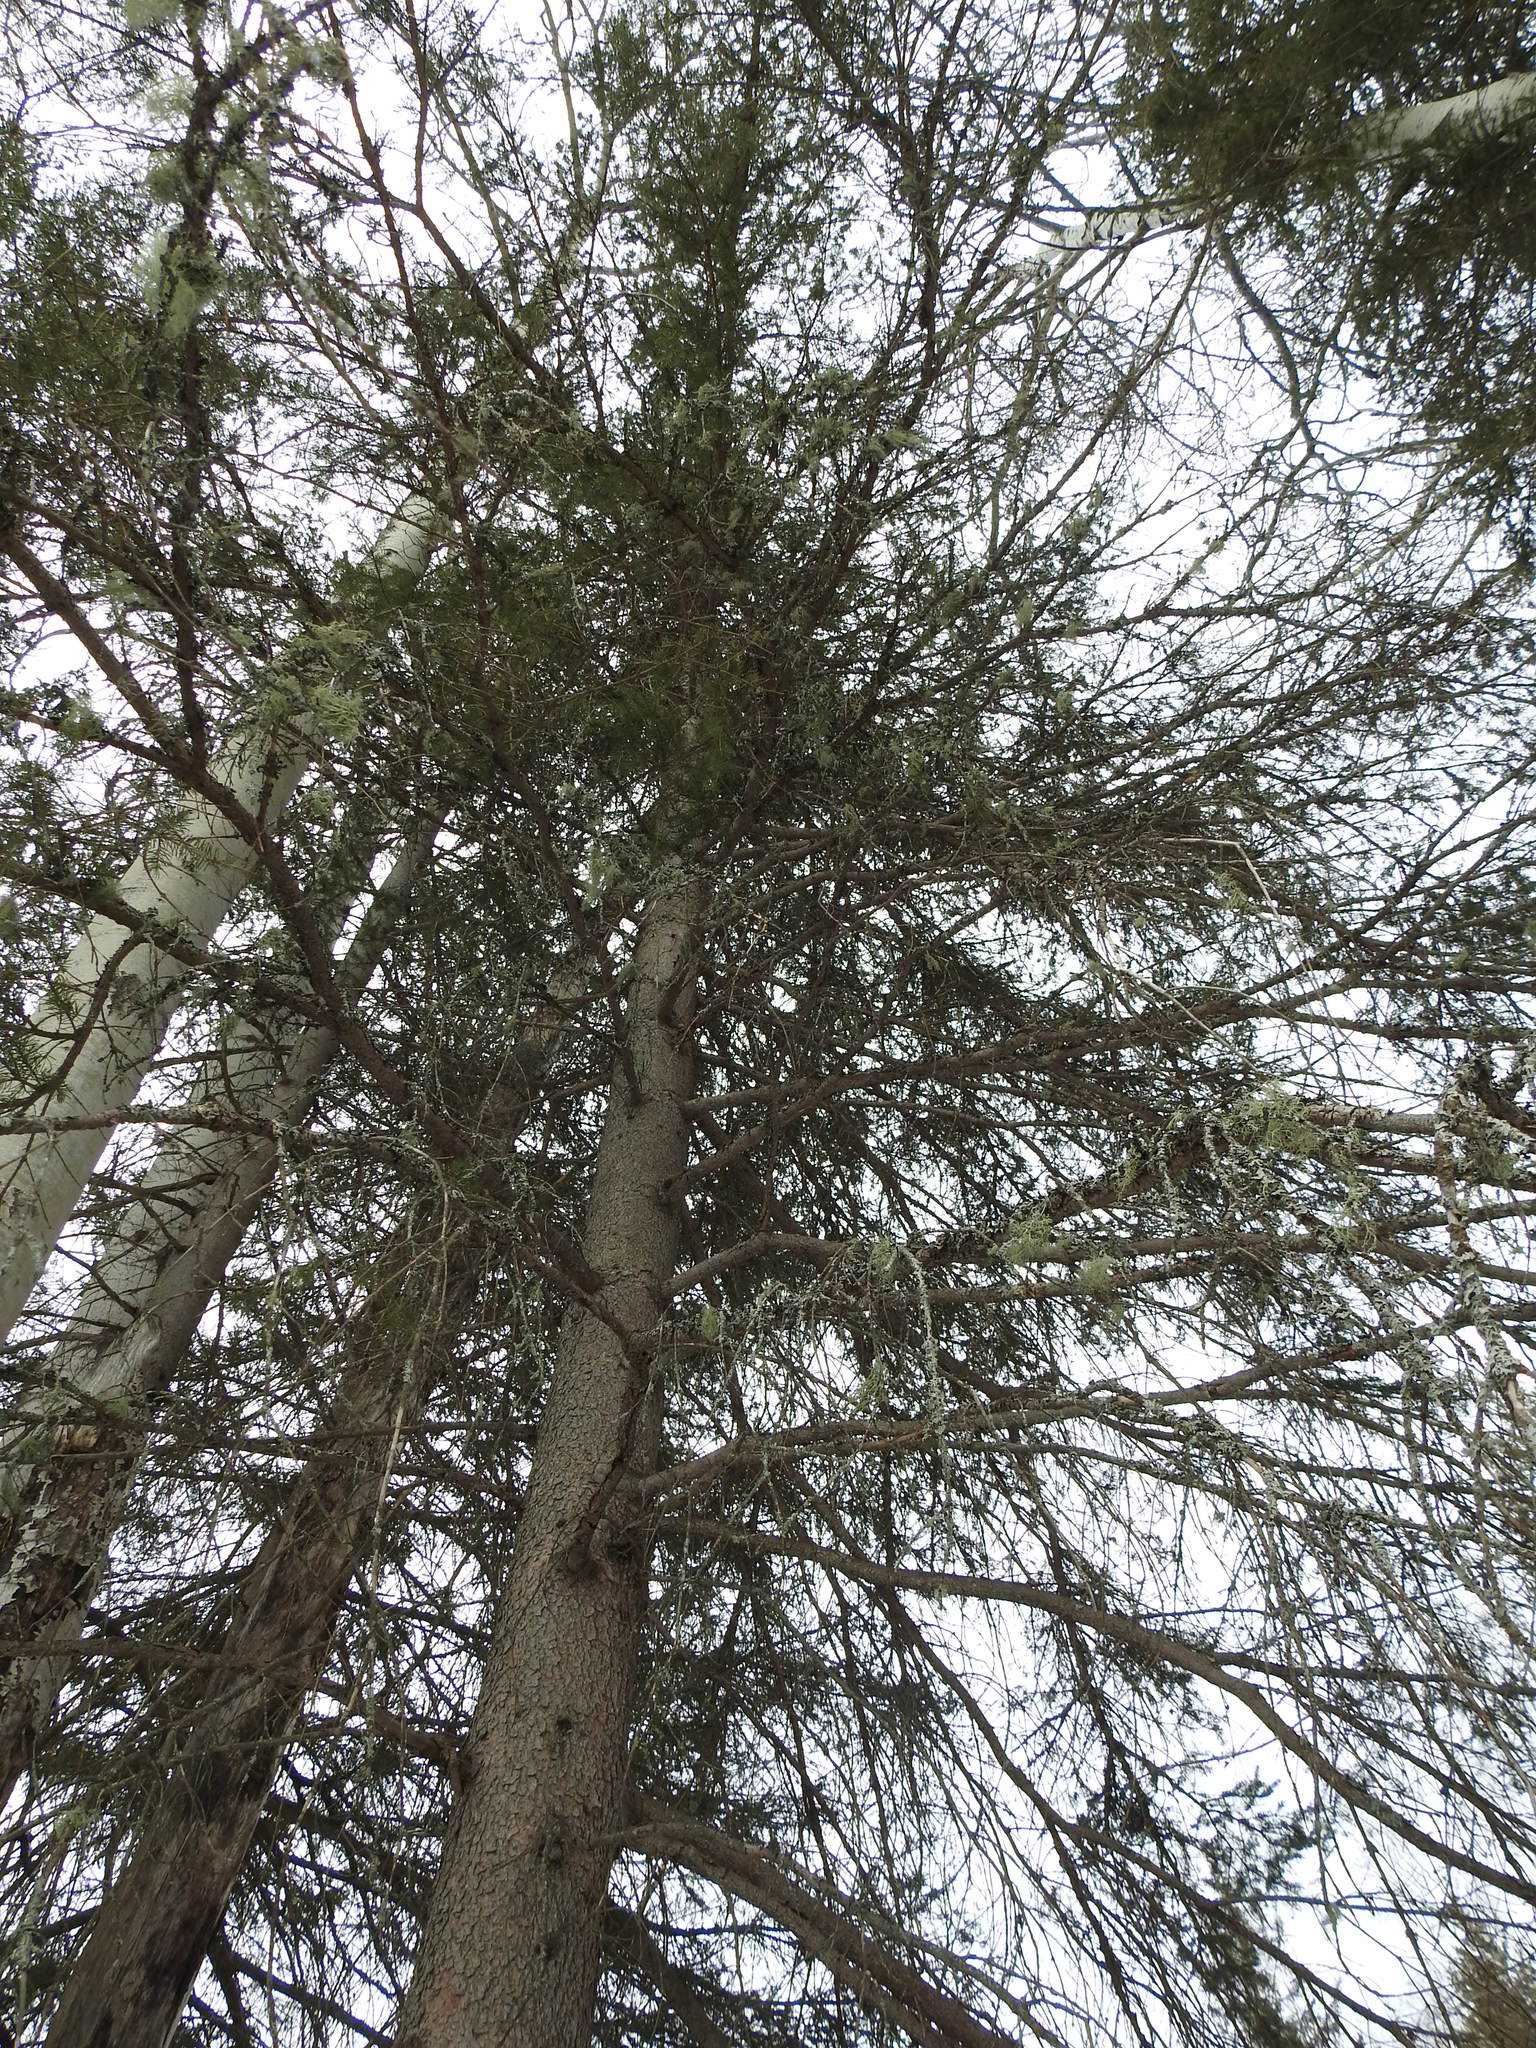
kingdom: Plantae
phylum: Tracheophyta
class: Pinopsida
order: Pinales
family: Pinaceae
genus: Picea
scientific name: Picea glauca
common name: White spruce
